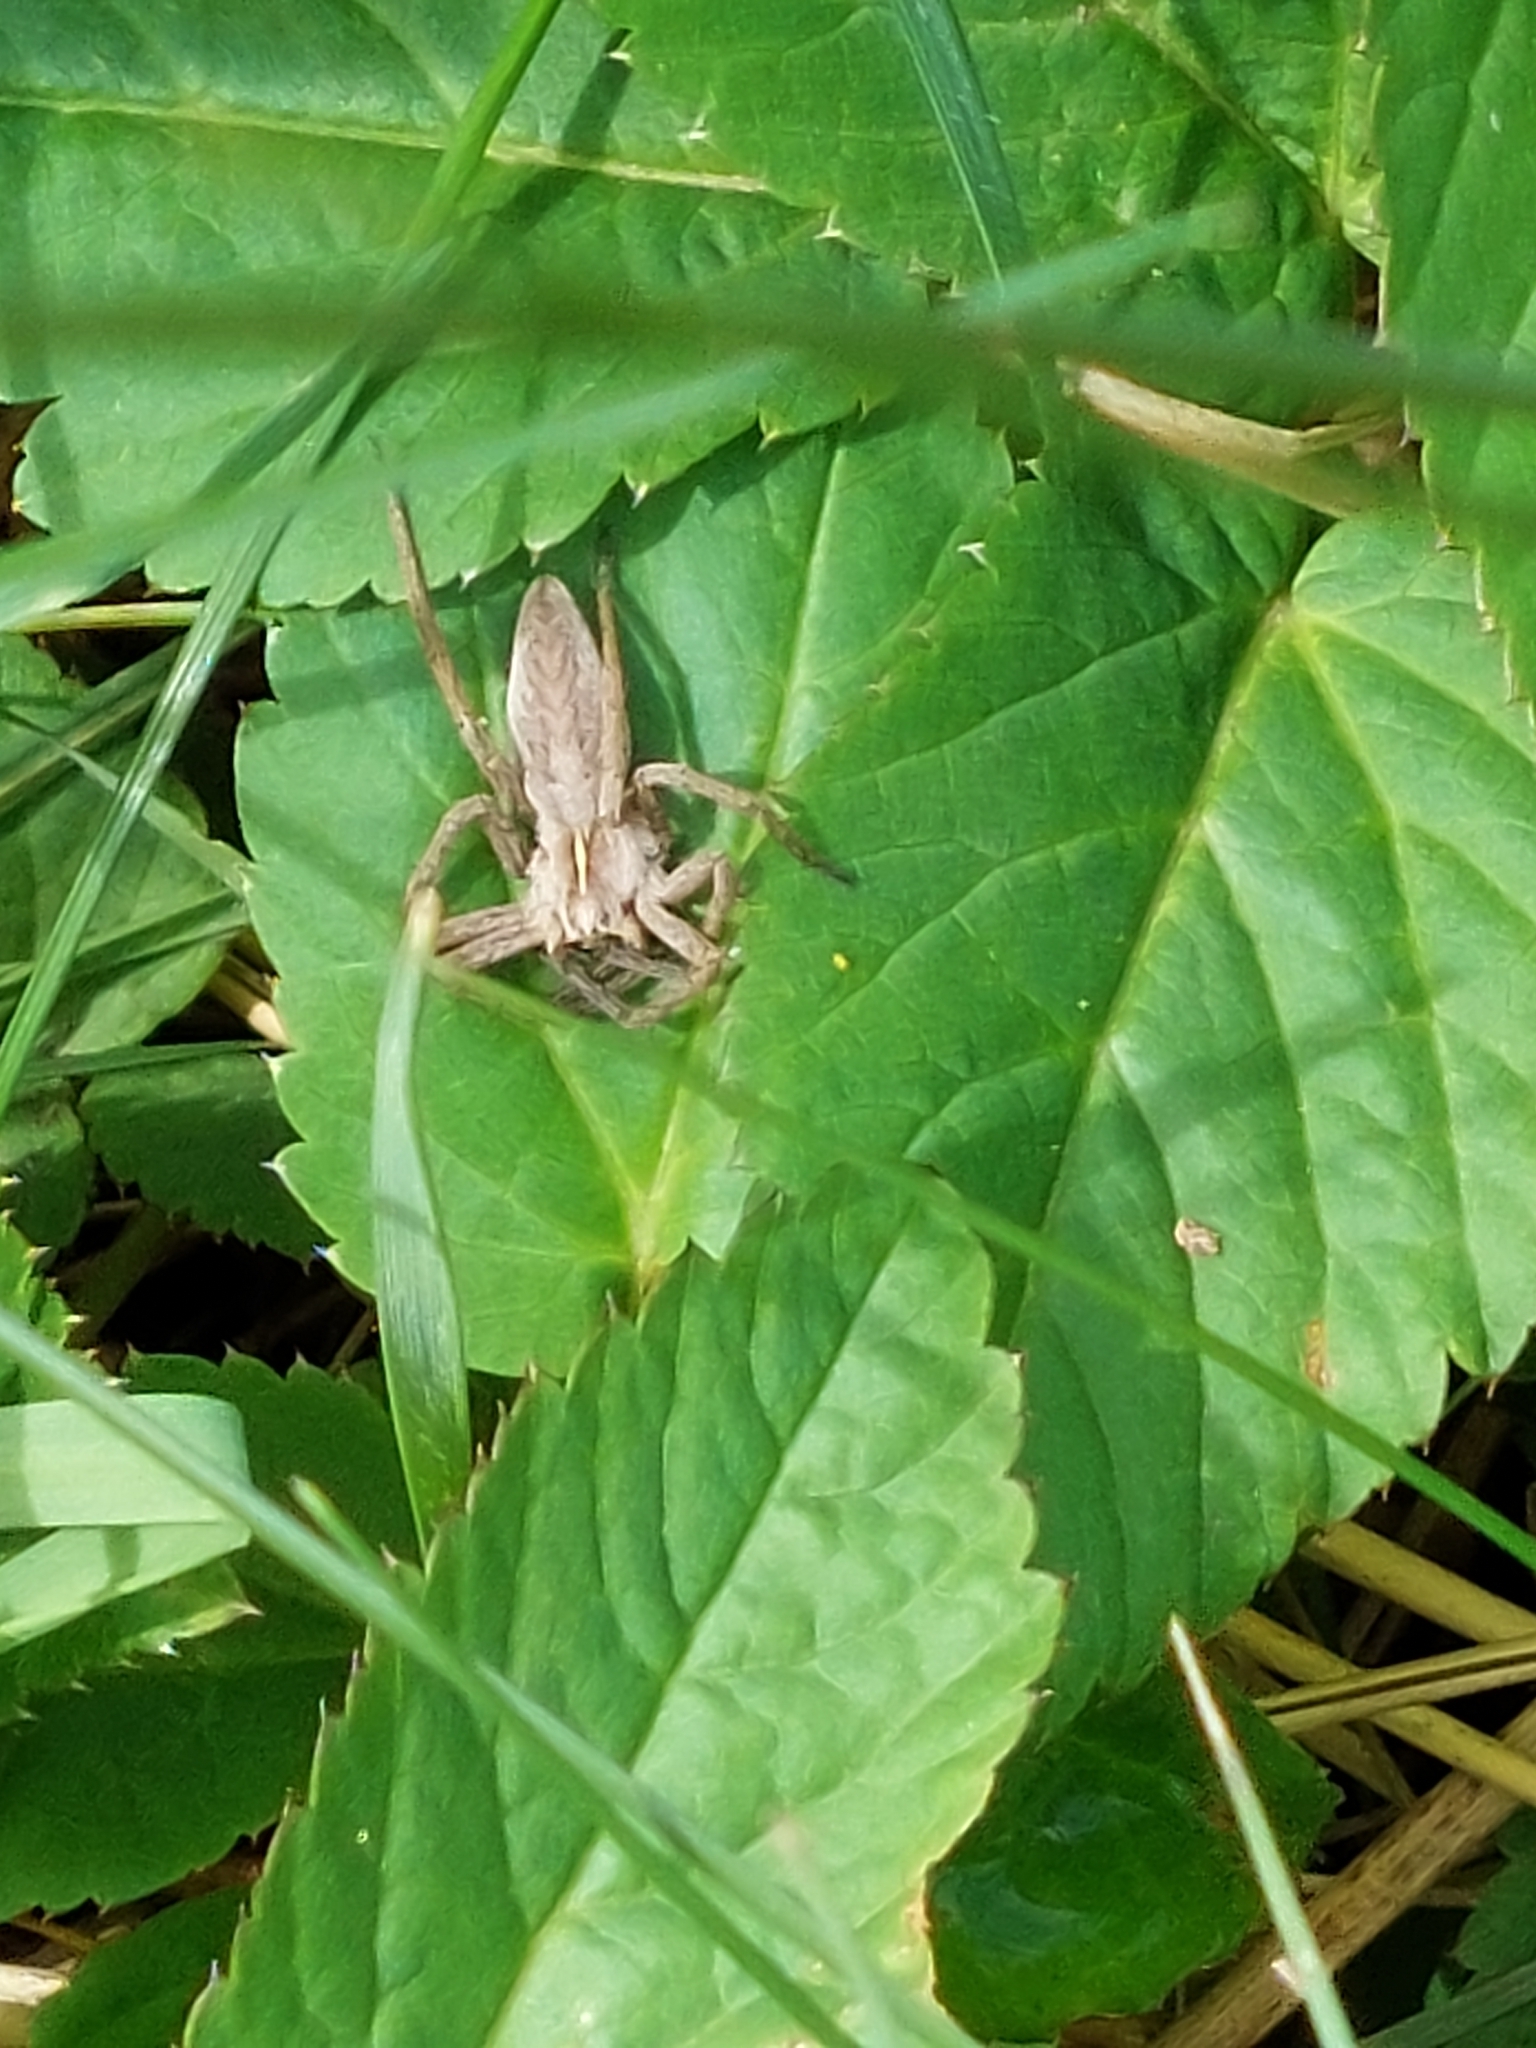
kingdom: Animalia
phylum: Arthropoda
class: Arachnida
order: Araneae
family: Pisauridae
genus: Pisaura
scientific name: Pisaura mirabilis
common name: Tent spider
